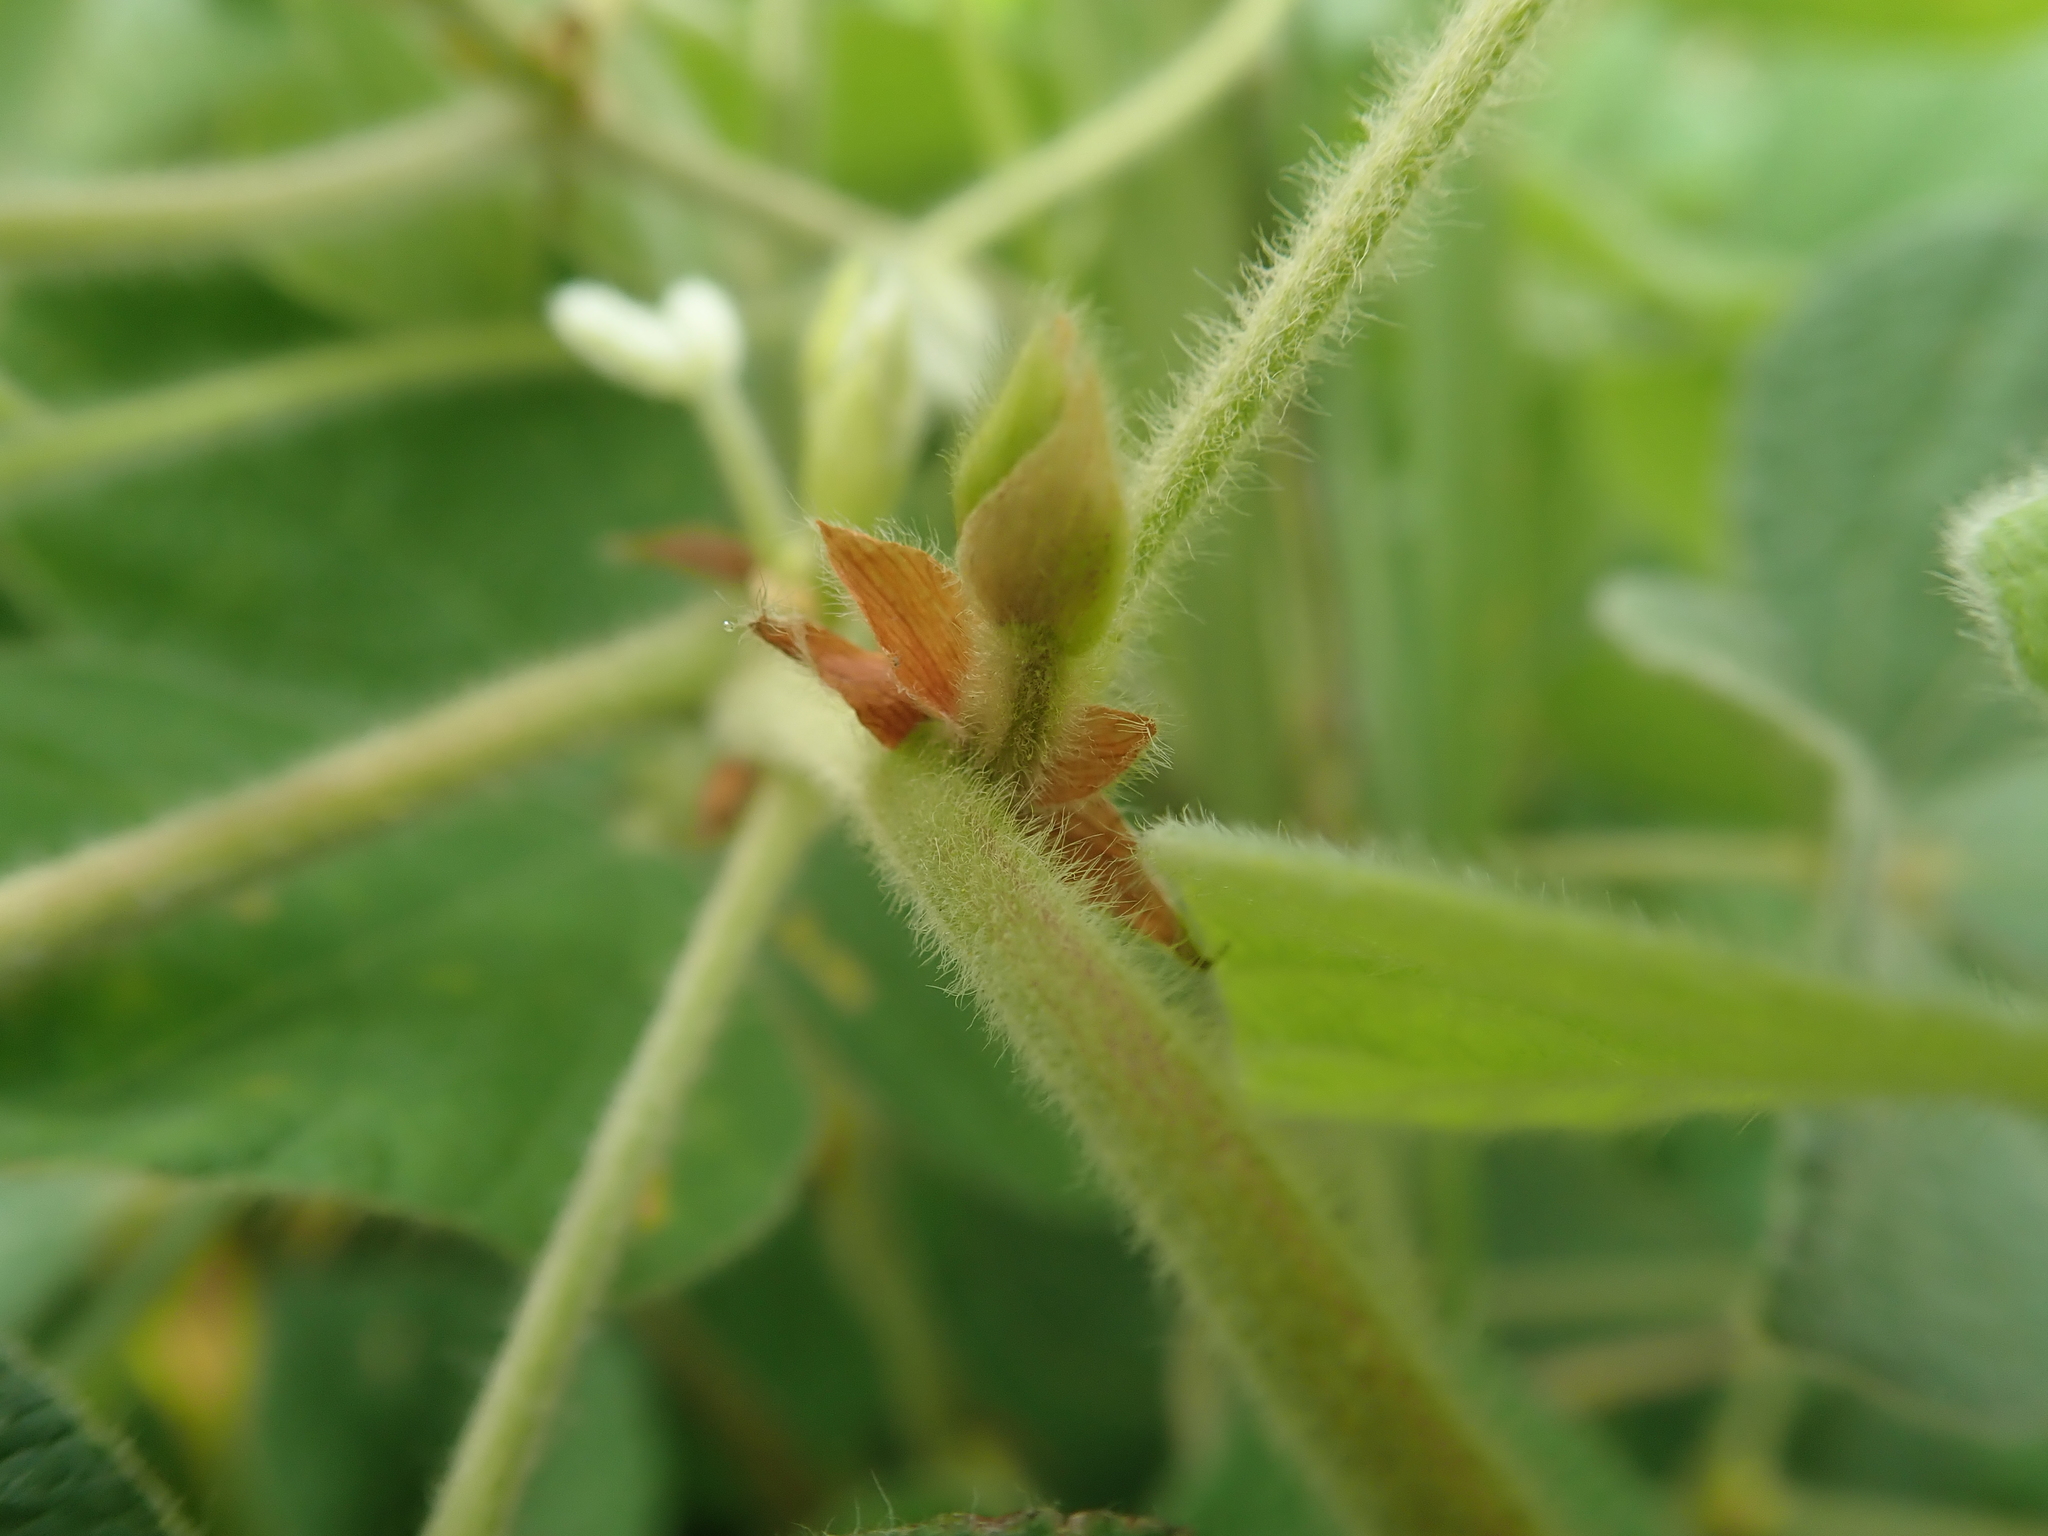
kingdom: Plantae
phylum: Tracheophyta
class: Magnoliopsida
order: Fabales
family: Fabaceae
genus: Rhynchosia
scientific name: Rhynchosia volubilis
